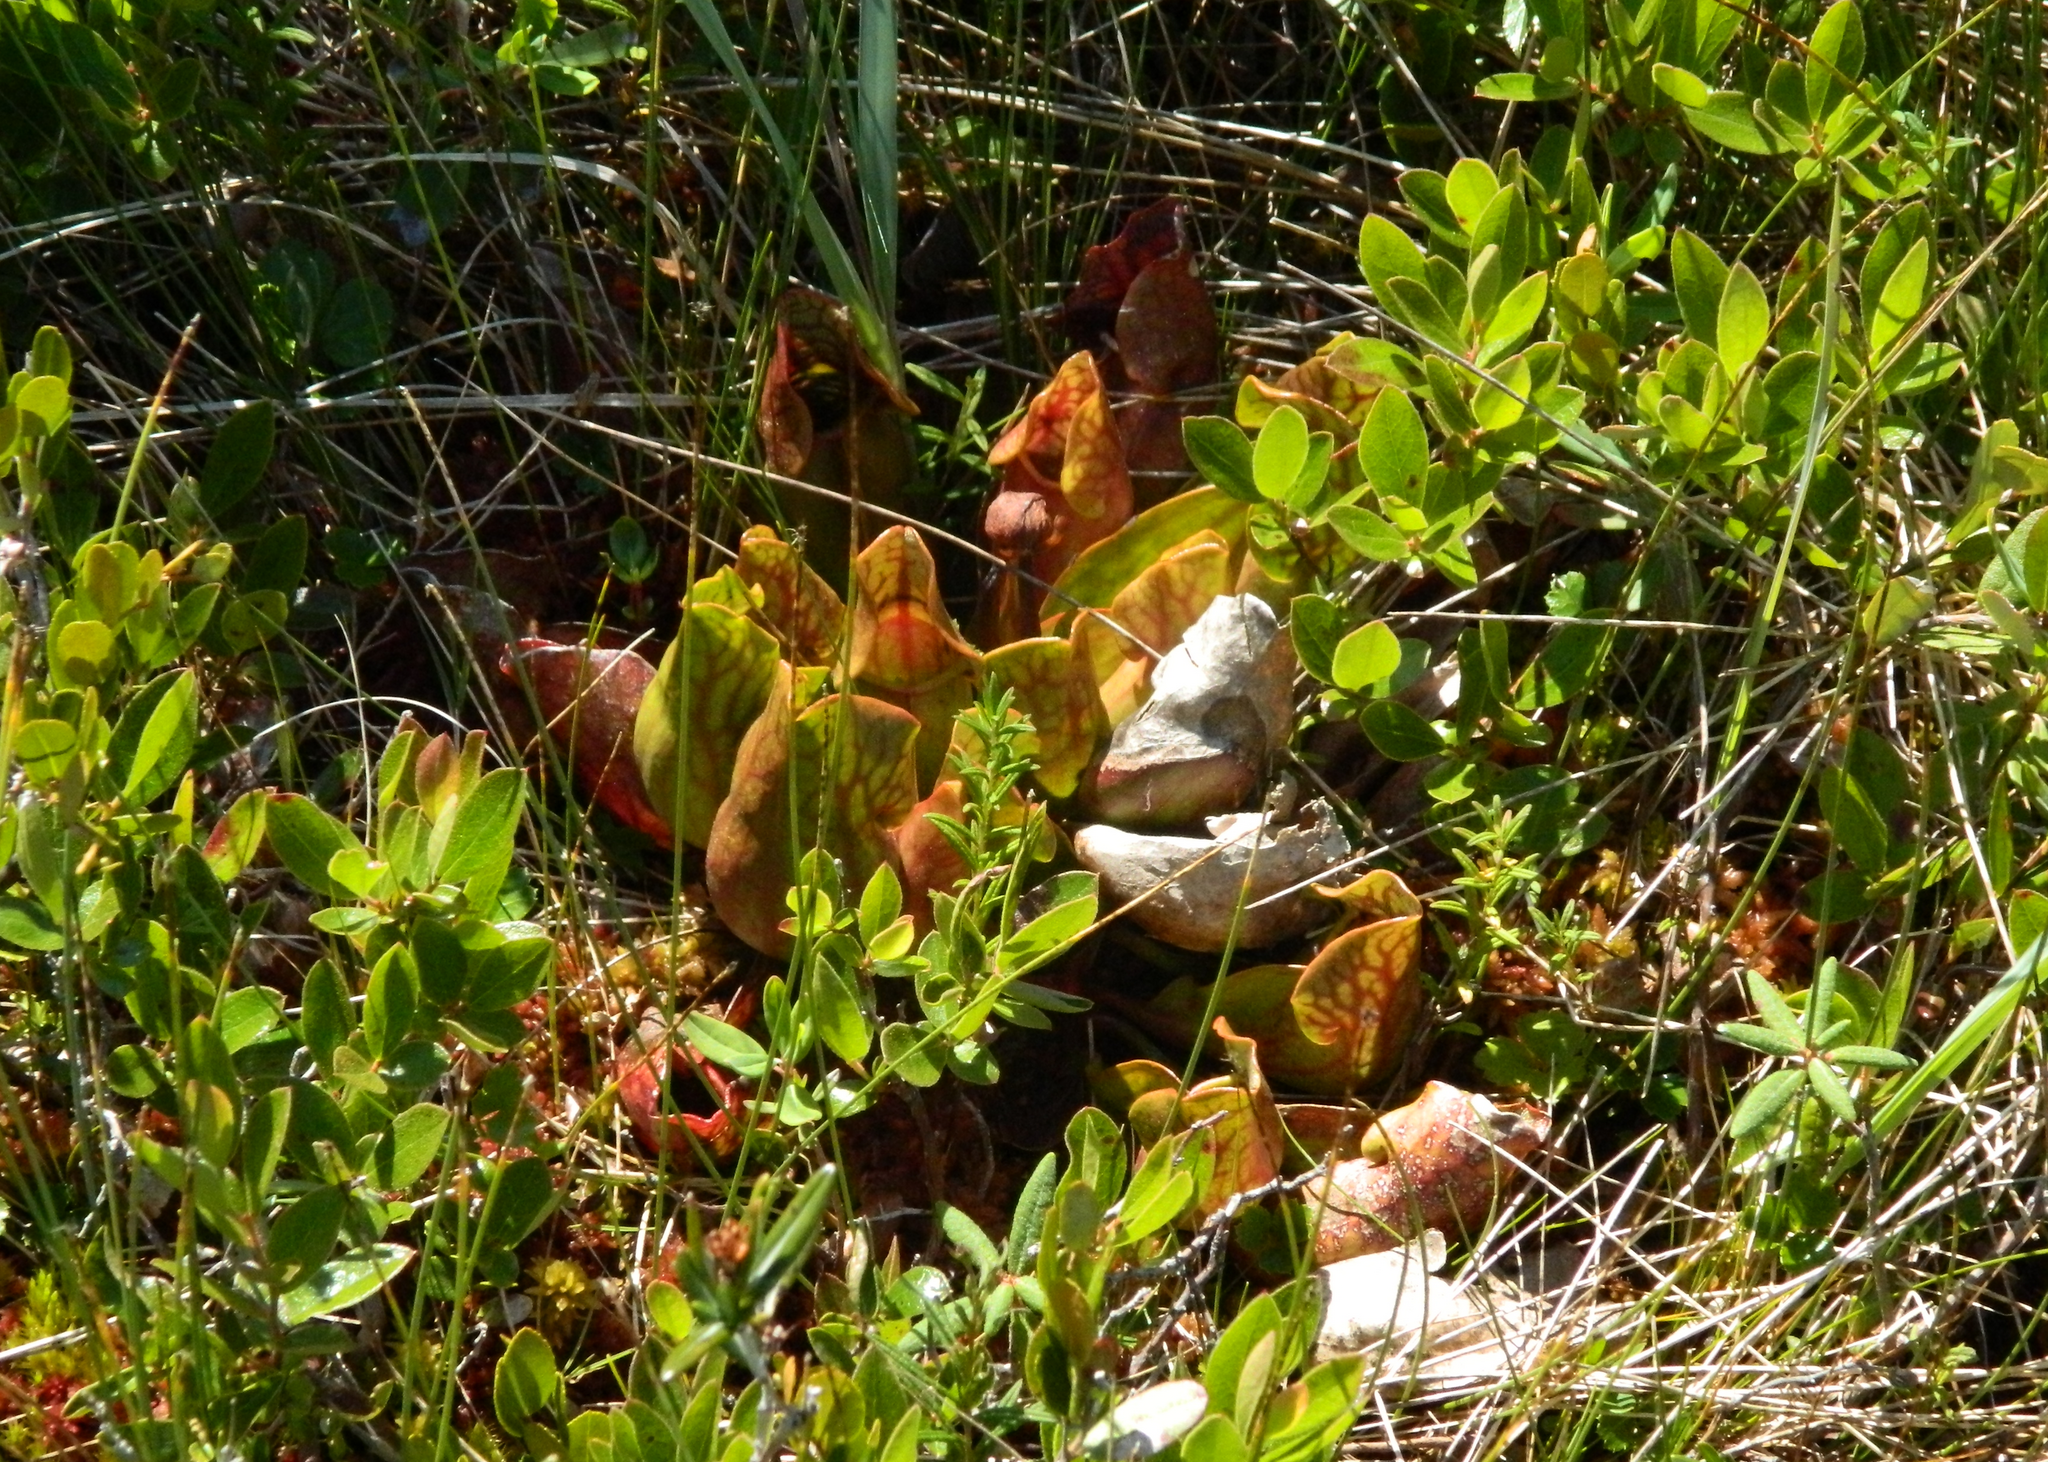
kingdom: Plantae
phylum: Tracheophyta
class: Magnoliopsida
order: Ericales
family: Sarraceniaceae
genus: Sarracenia
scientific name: Sarracenia purpurea
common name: Pitcherplant
